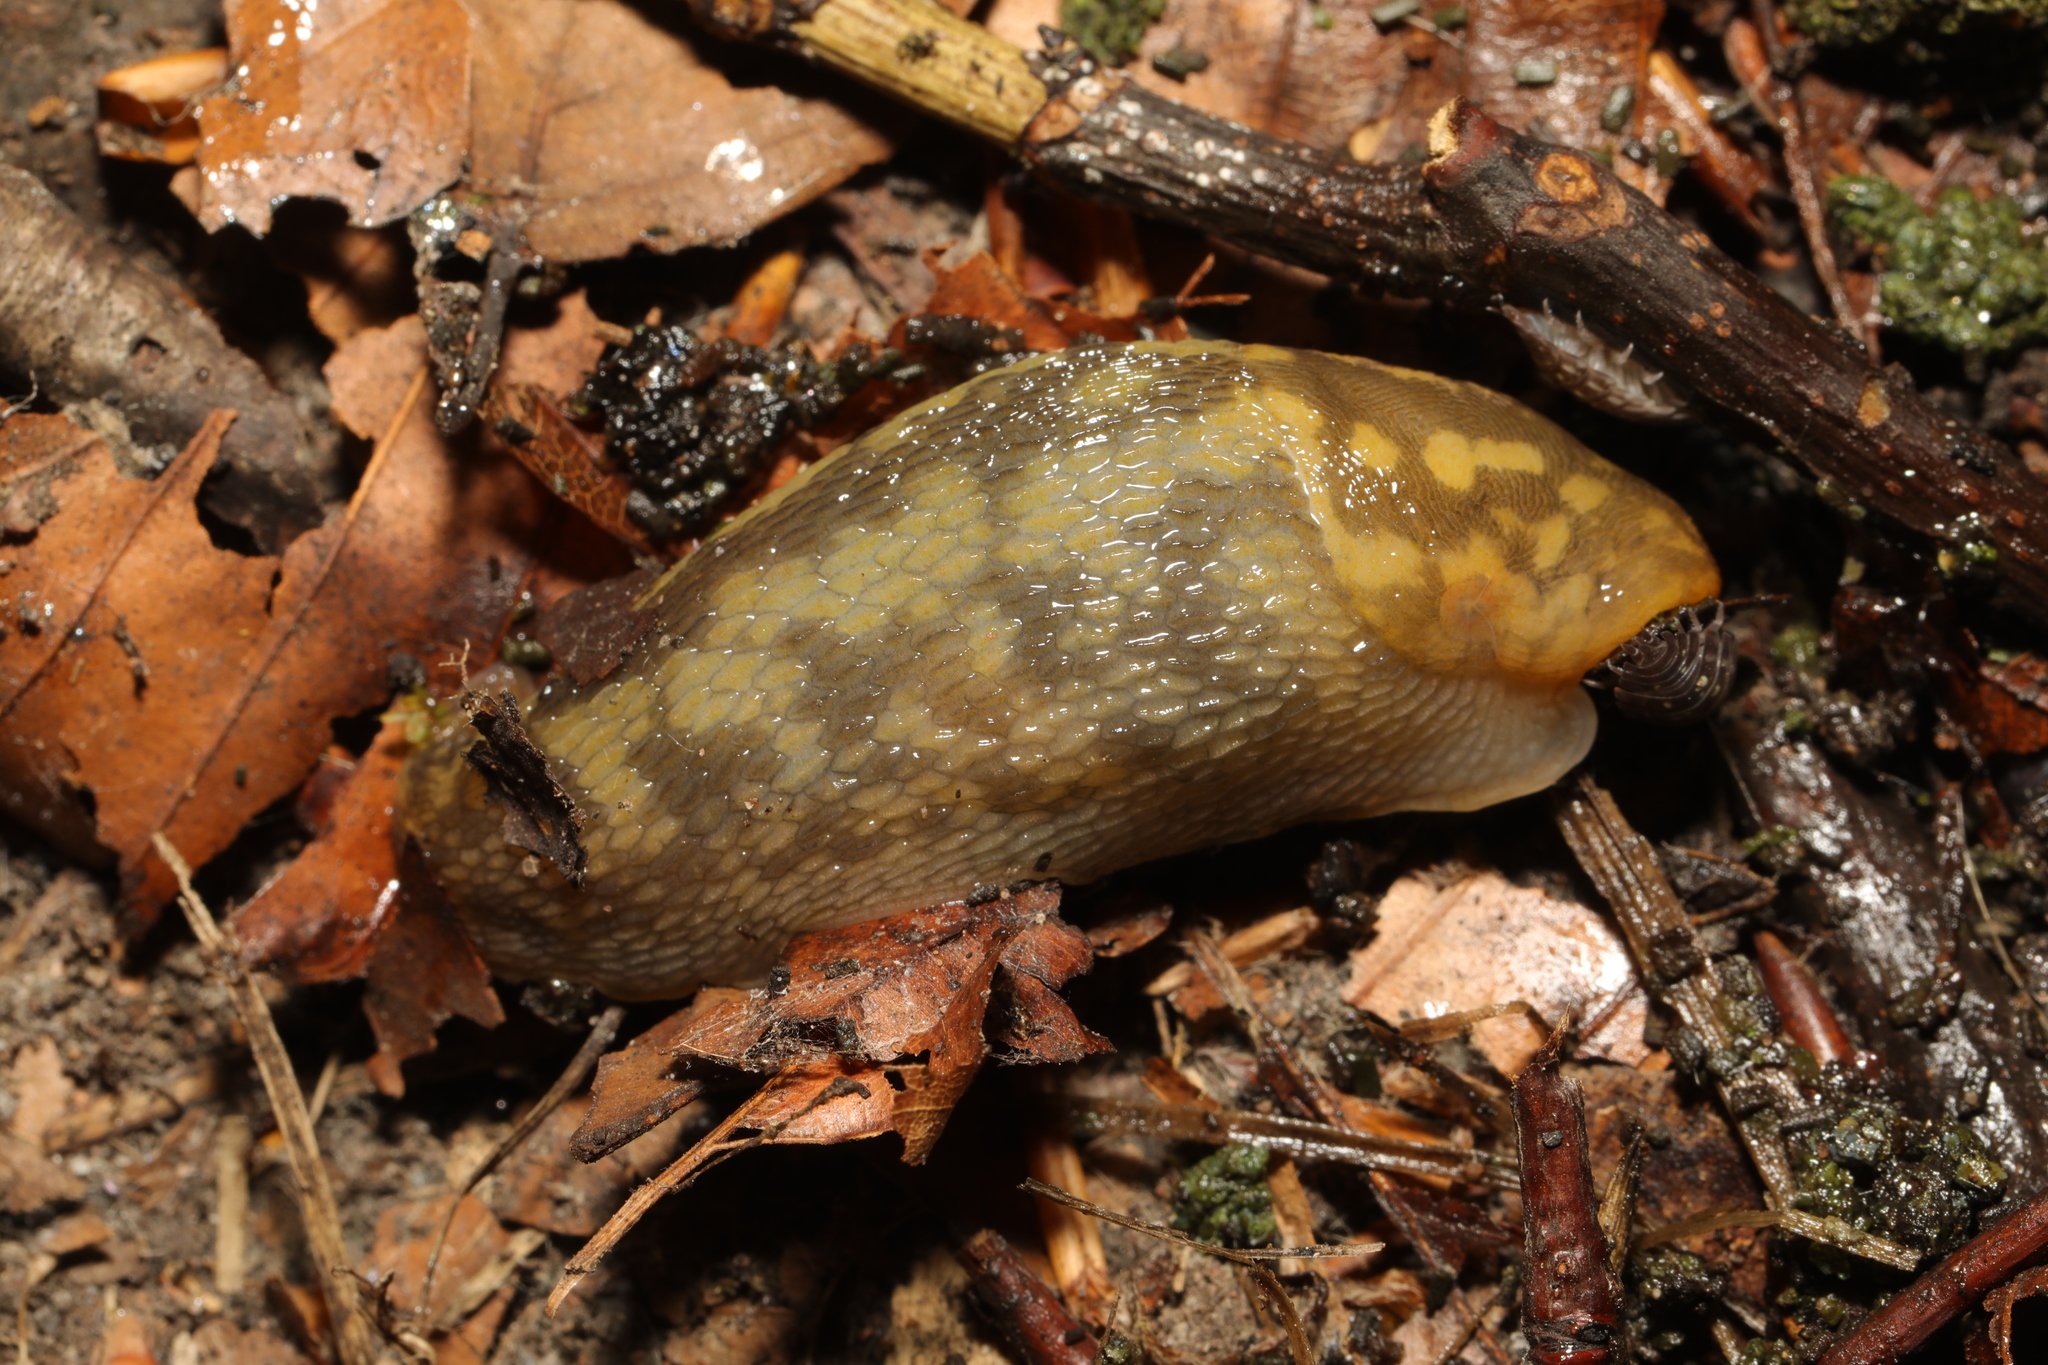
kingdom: Animalia
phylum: Mollusca
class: Gastropoda
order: Stylommatophora
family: Limacidae
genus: Limacus
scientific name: Limacus maculatus
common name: Irish yellow slug
